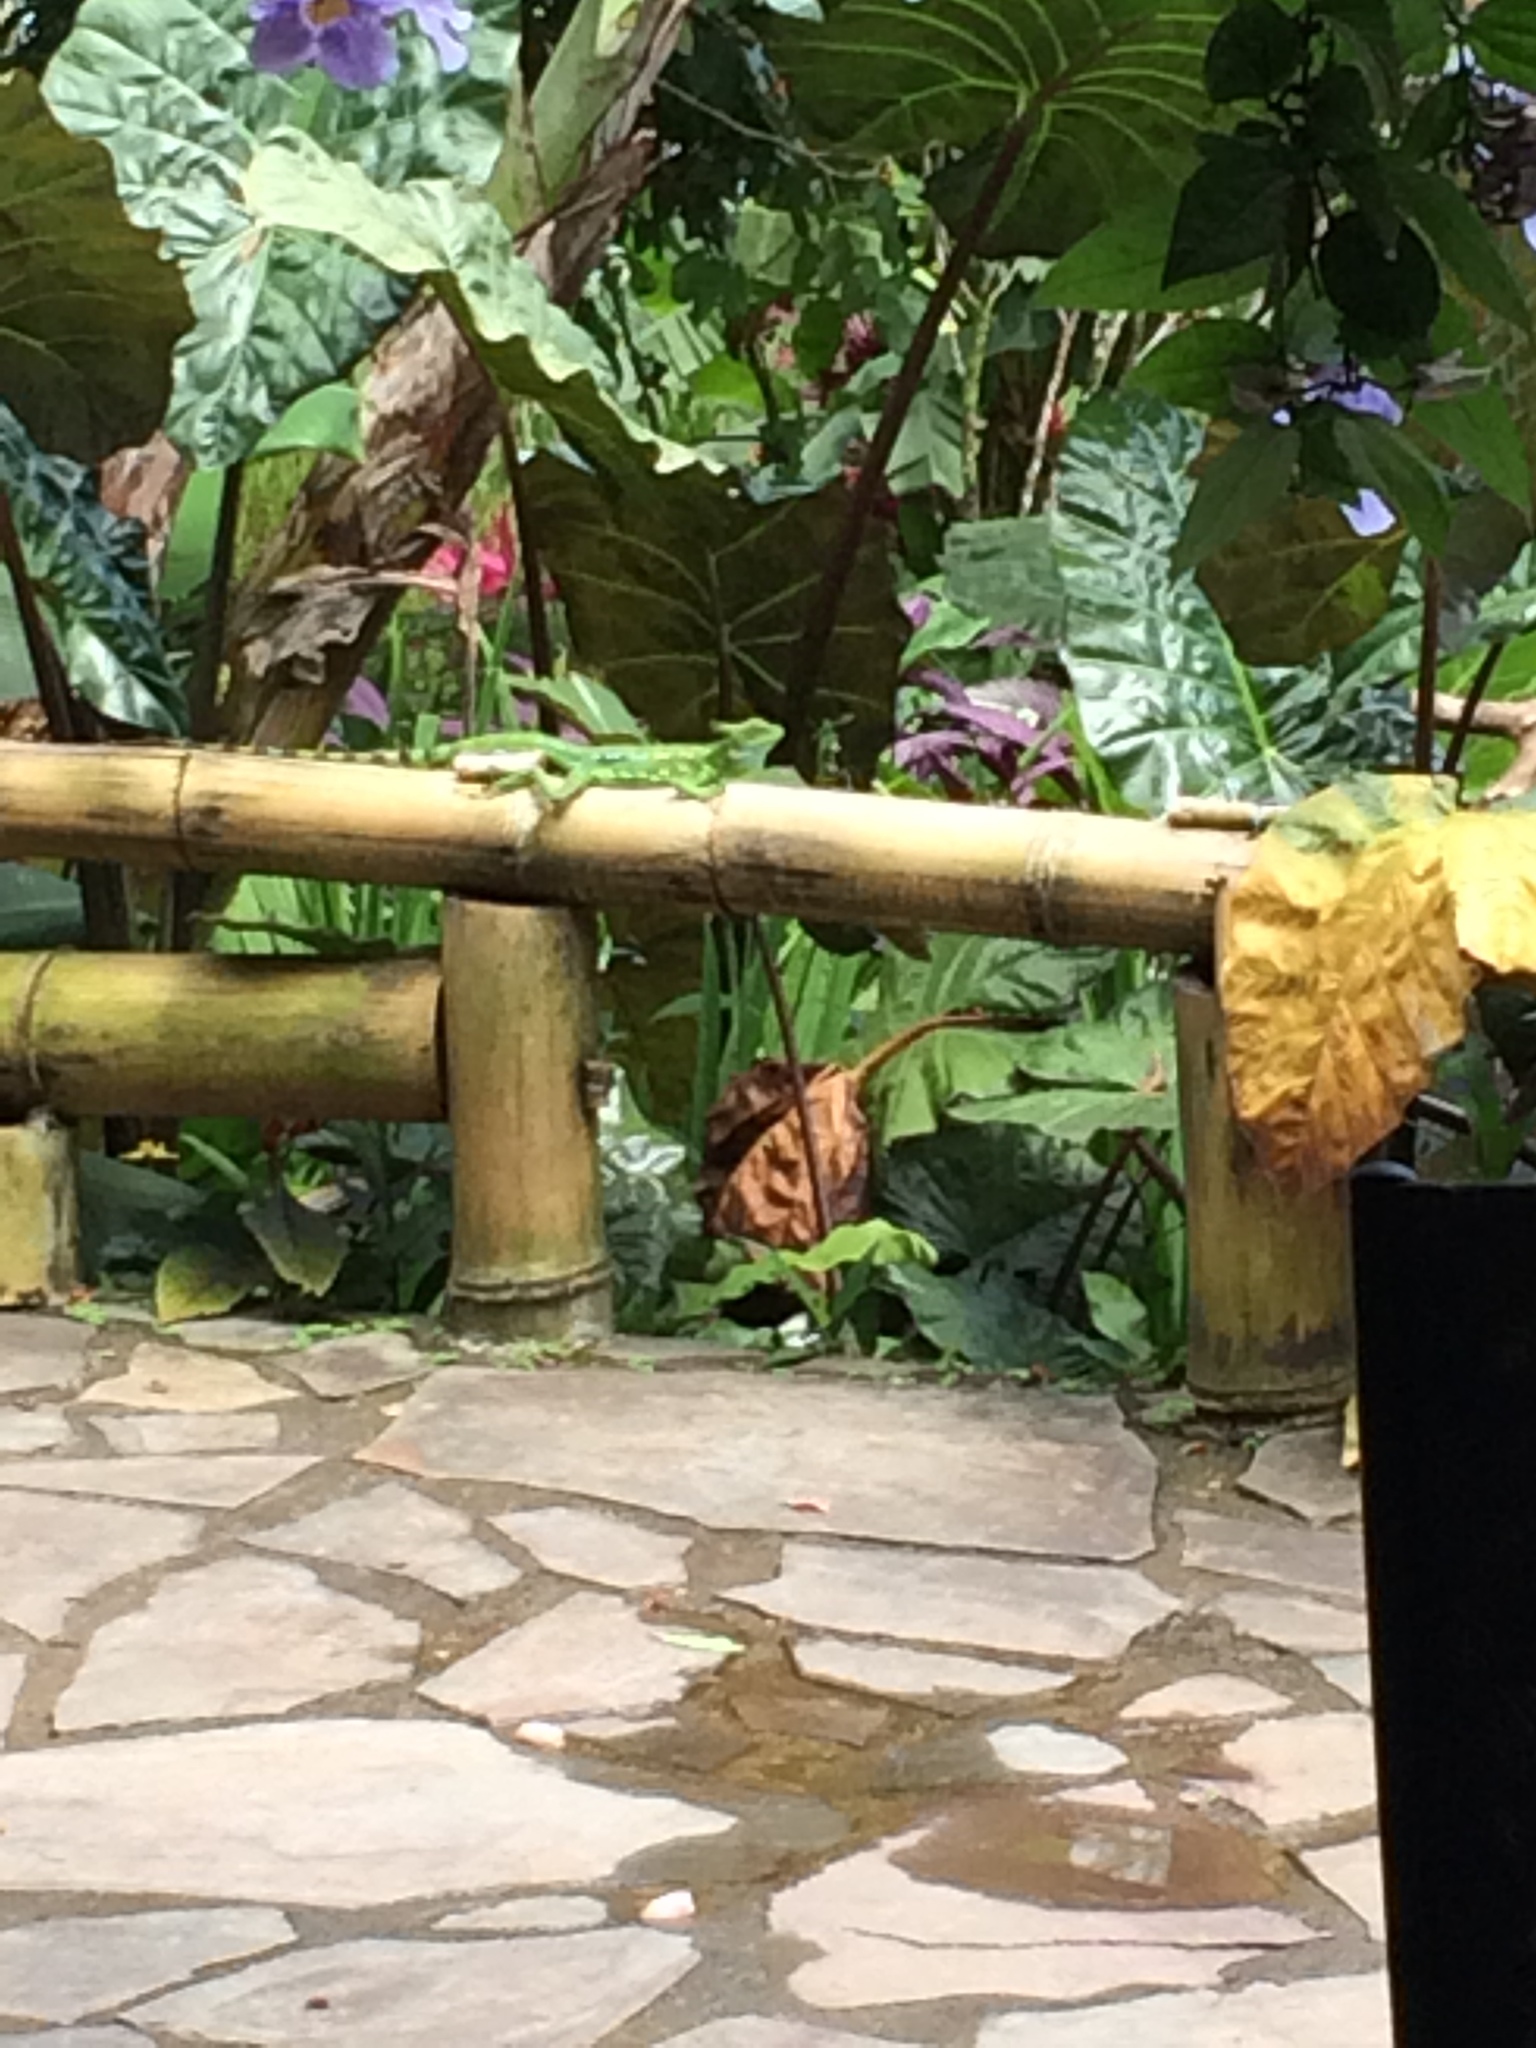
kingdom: Animalia
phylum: Chordata
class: Squamata
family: Corytophanidae
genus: Basiliscus
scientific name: Basiliscus plumifrons
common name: Green basilisk
